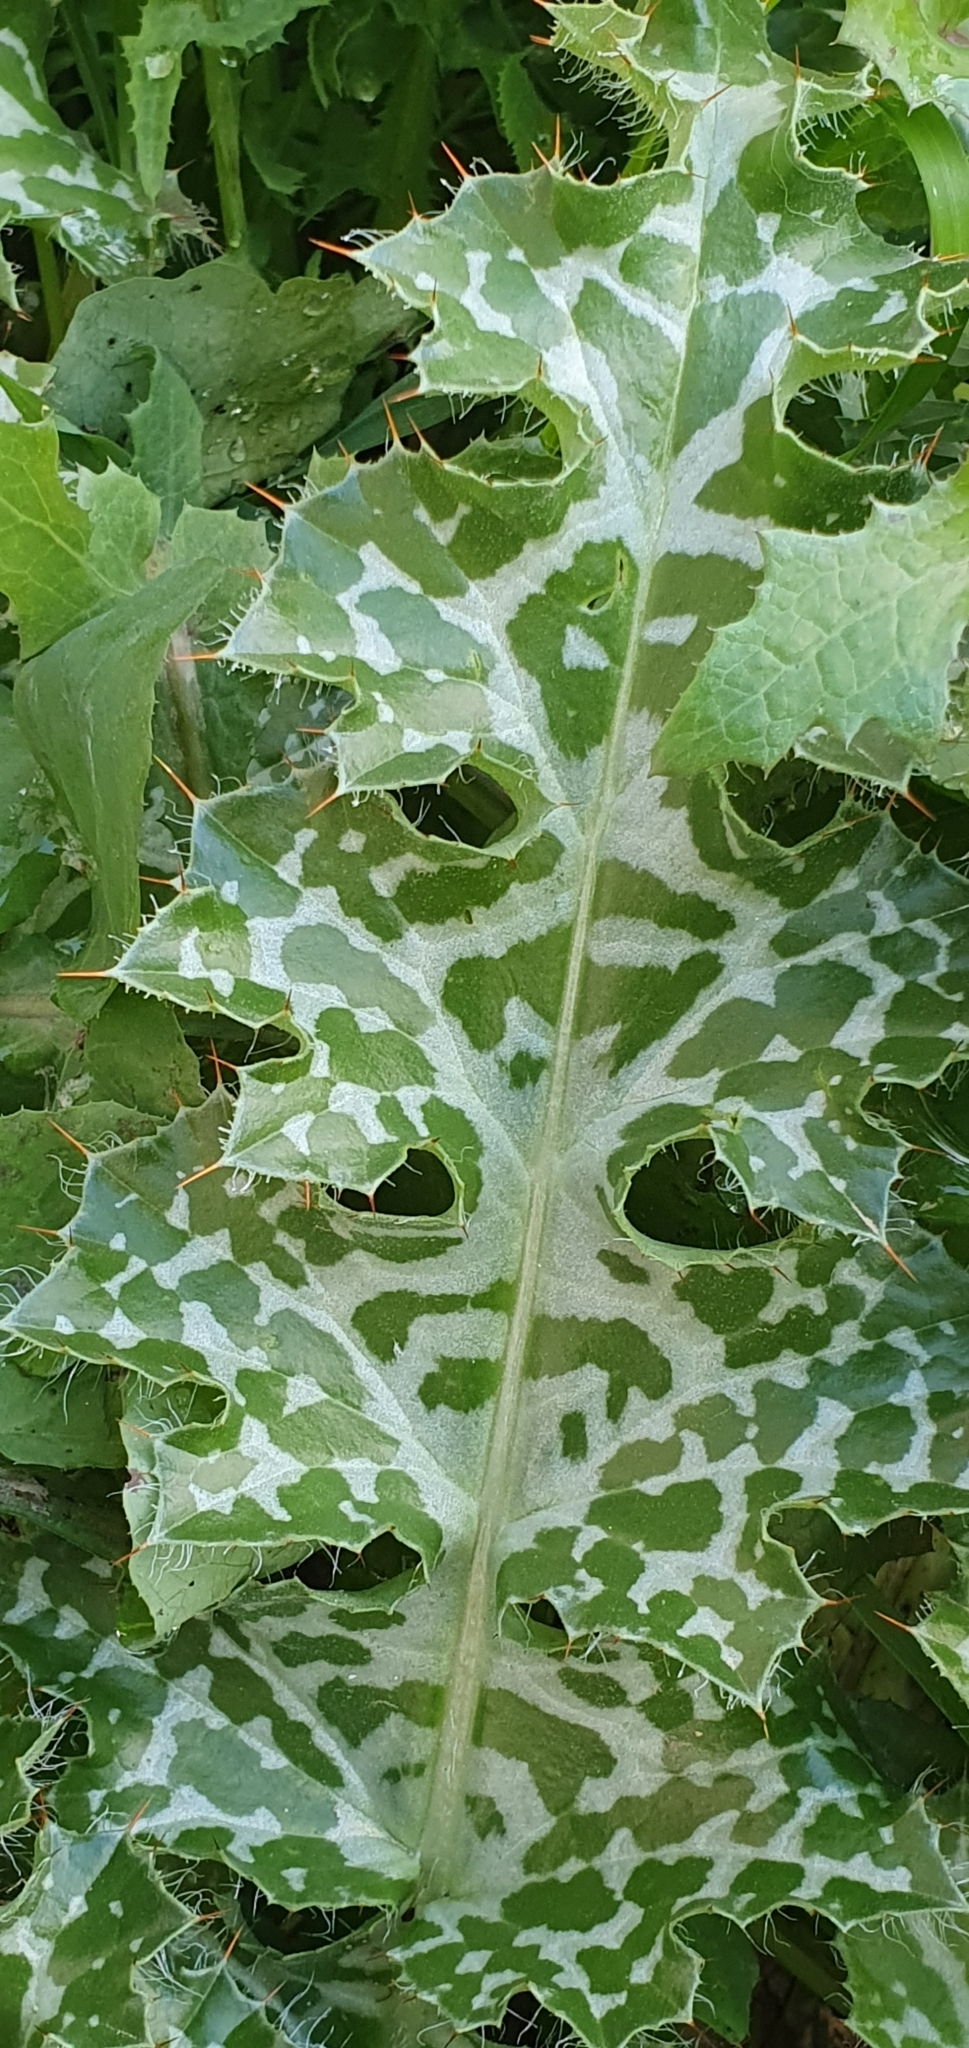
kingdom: Plantae
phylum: Tracheophyta
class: Magnoliopsida
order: Asterales
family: Asteraceae
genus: Silybum
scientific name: Silybum eburneum
